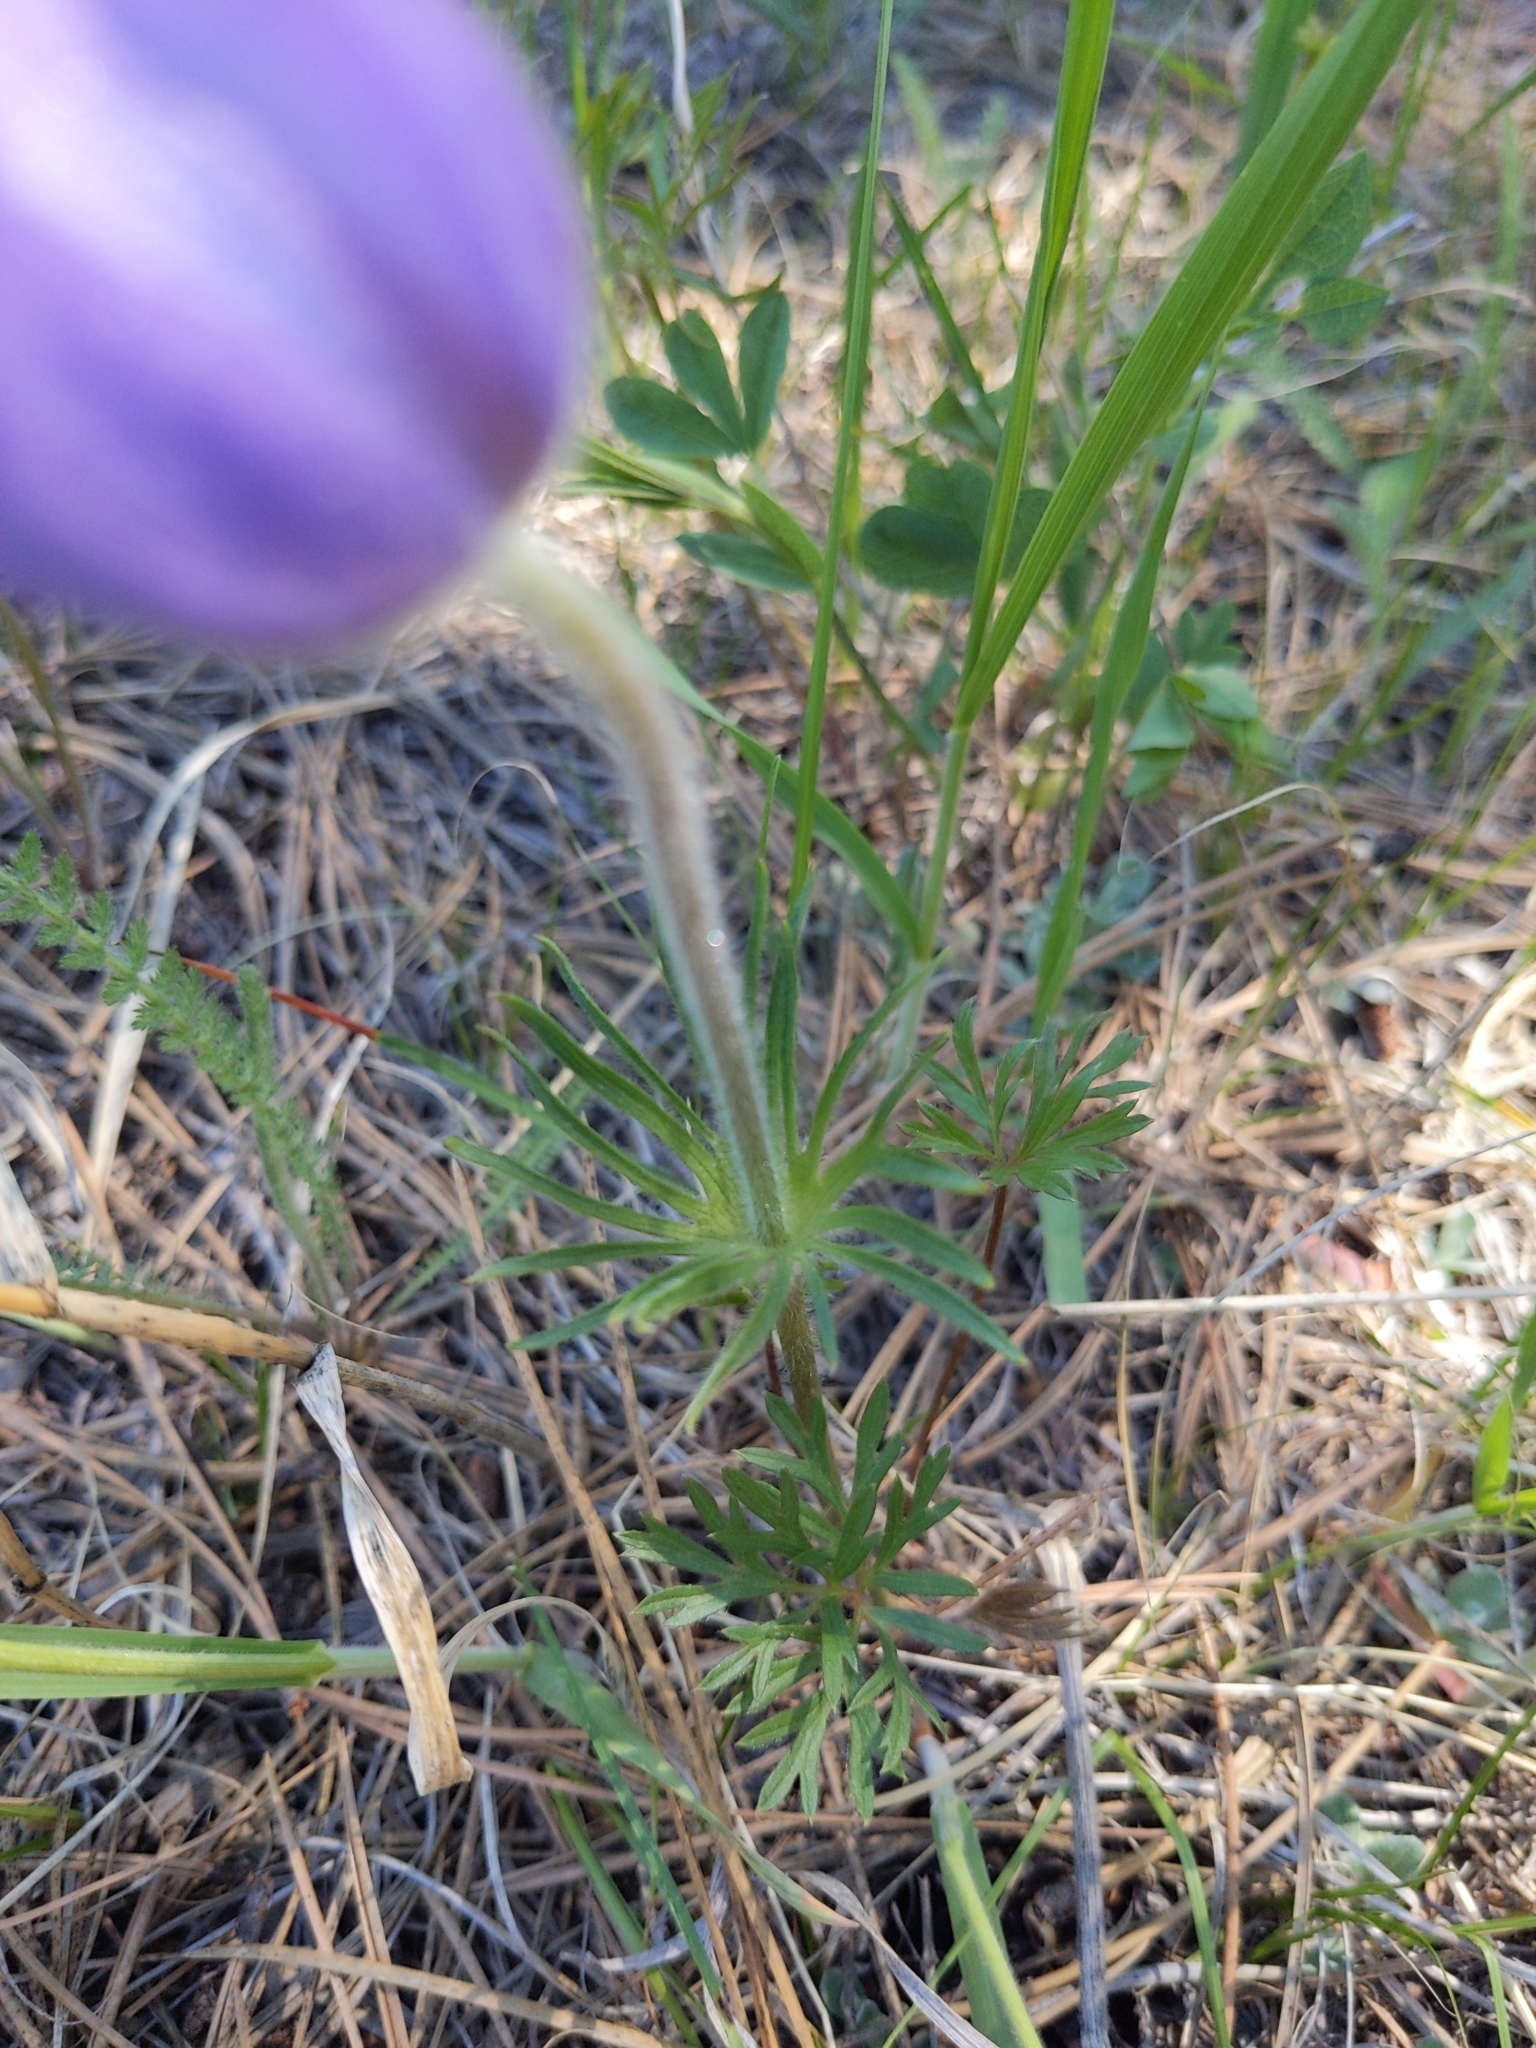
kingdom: Plantae
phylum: Tracheophyta
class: Magnoliopsida
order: Ranunculales
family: Ranunculaceae
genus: Pulsatilla
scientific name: Pulsatilla nuttalliana
